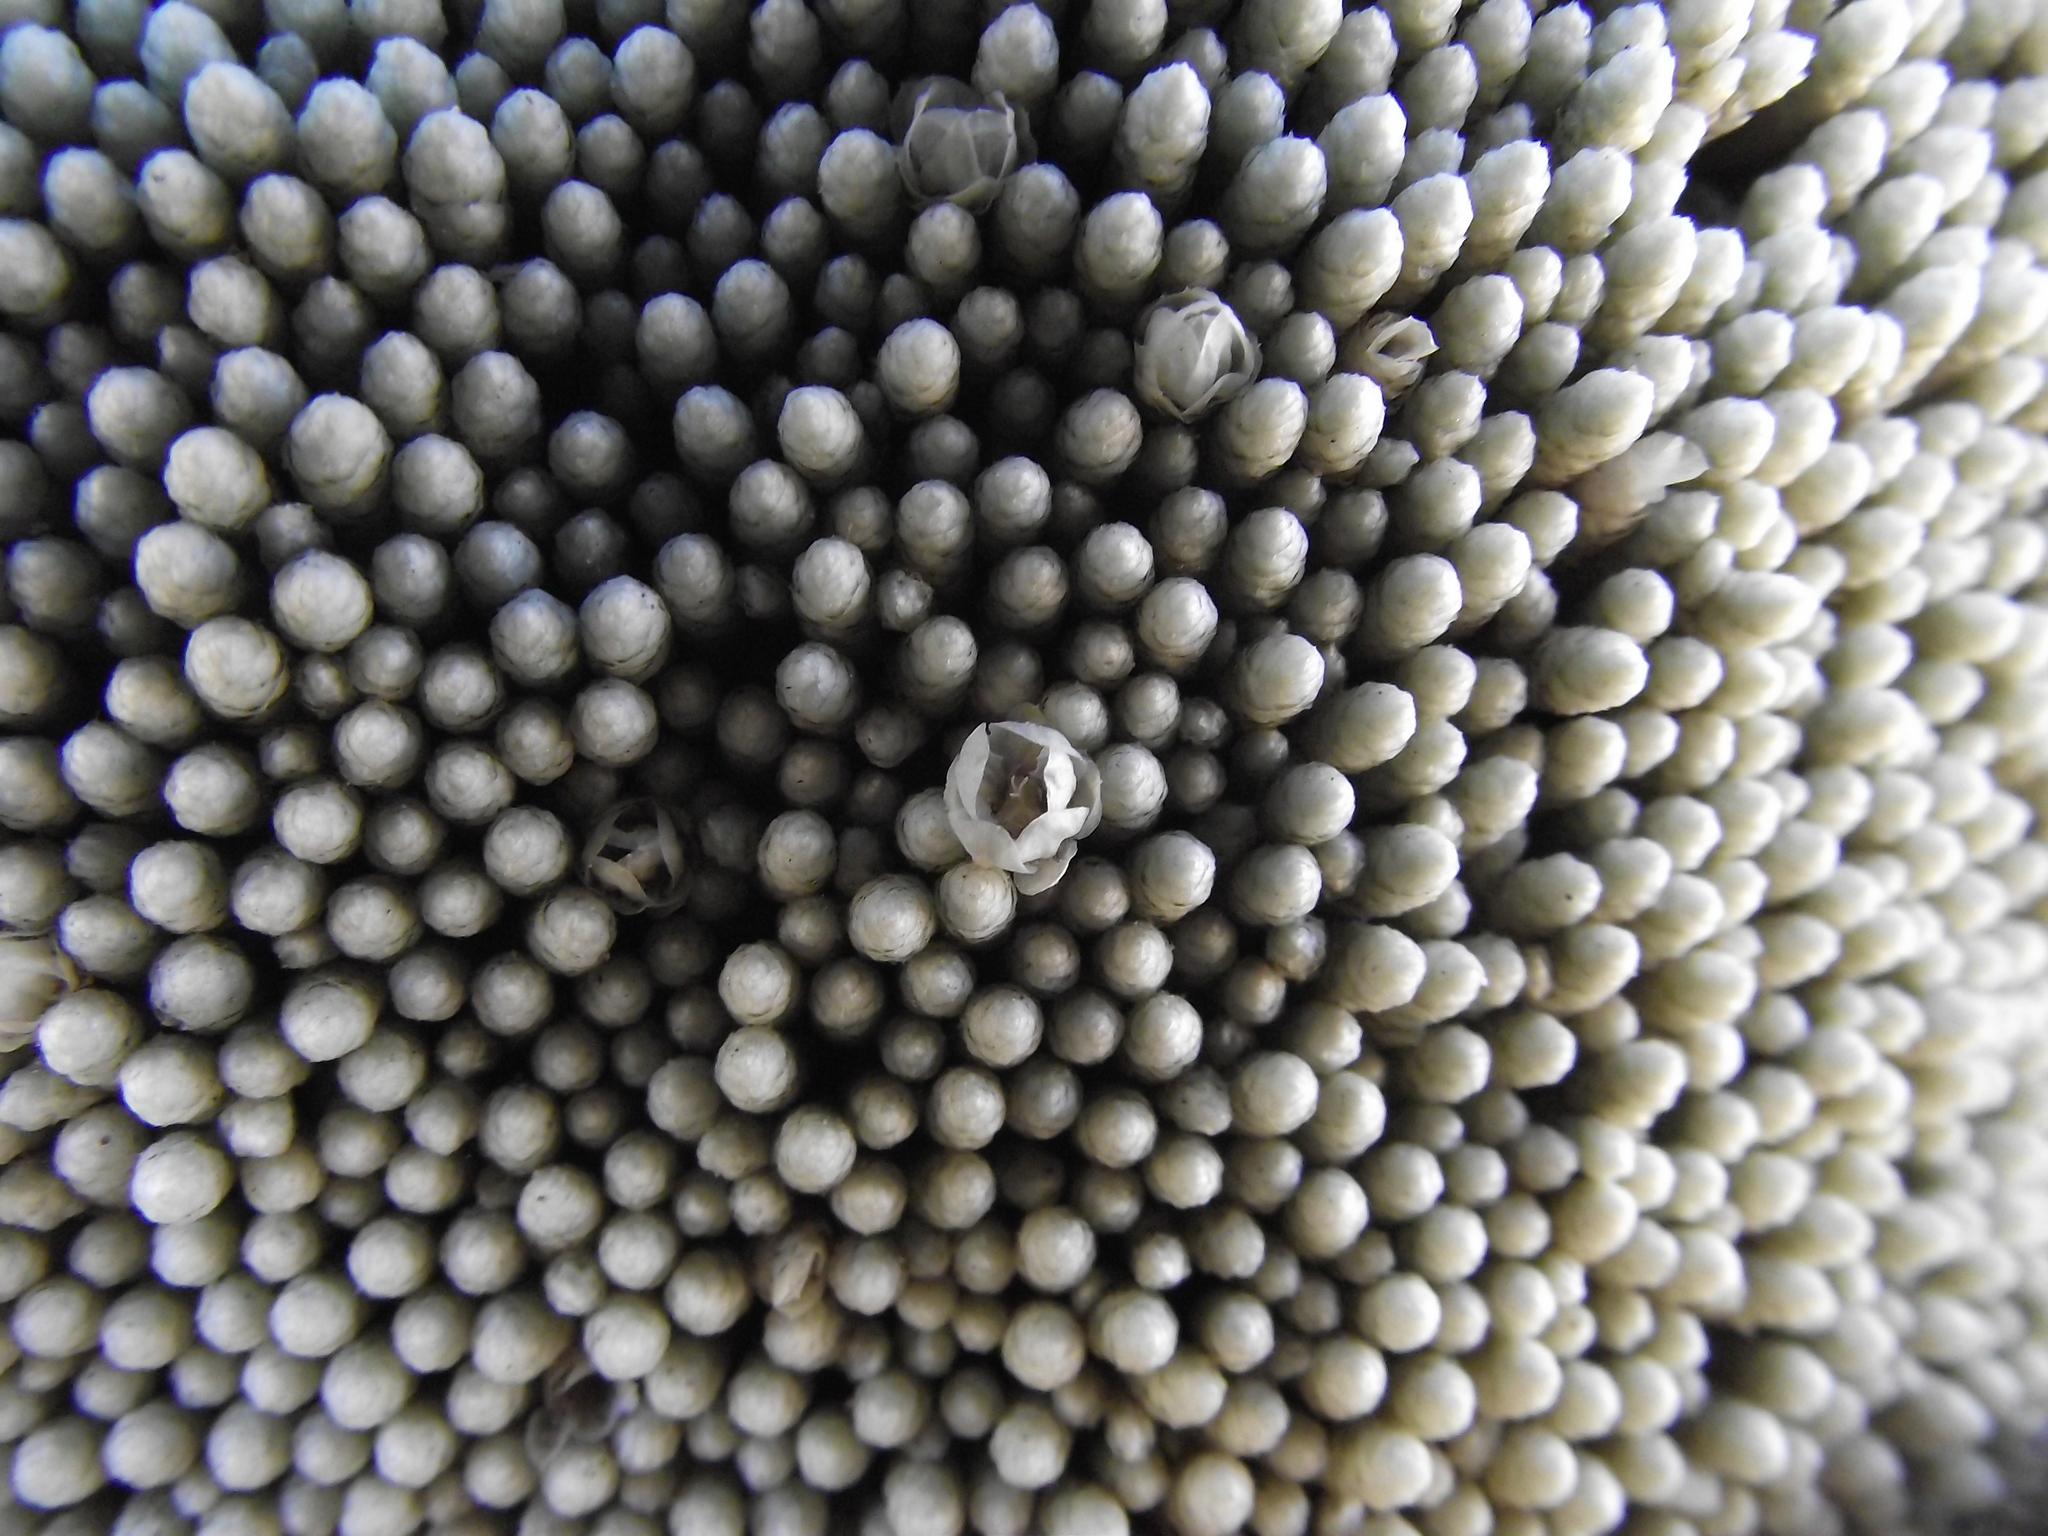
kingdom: Plantae
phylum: Tracheophyta
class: Magnoliopsida
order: Caryophyllales
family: Caryophyllaceae
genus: Pycnophyllum
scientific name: Pycnophyllum molle
